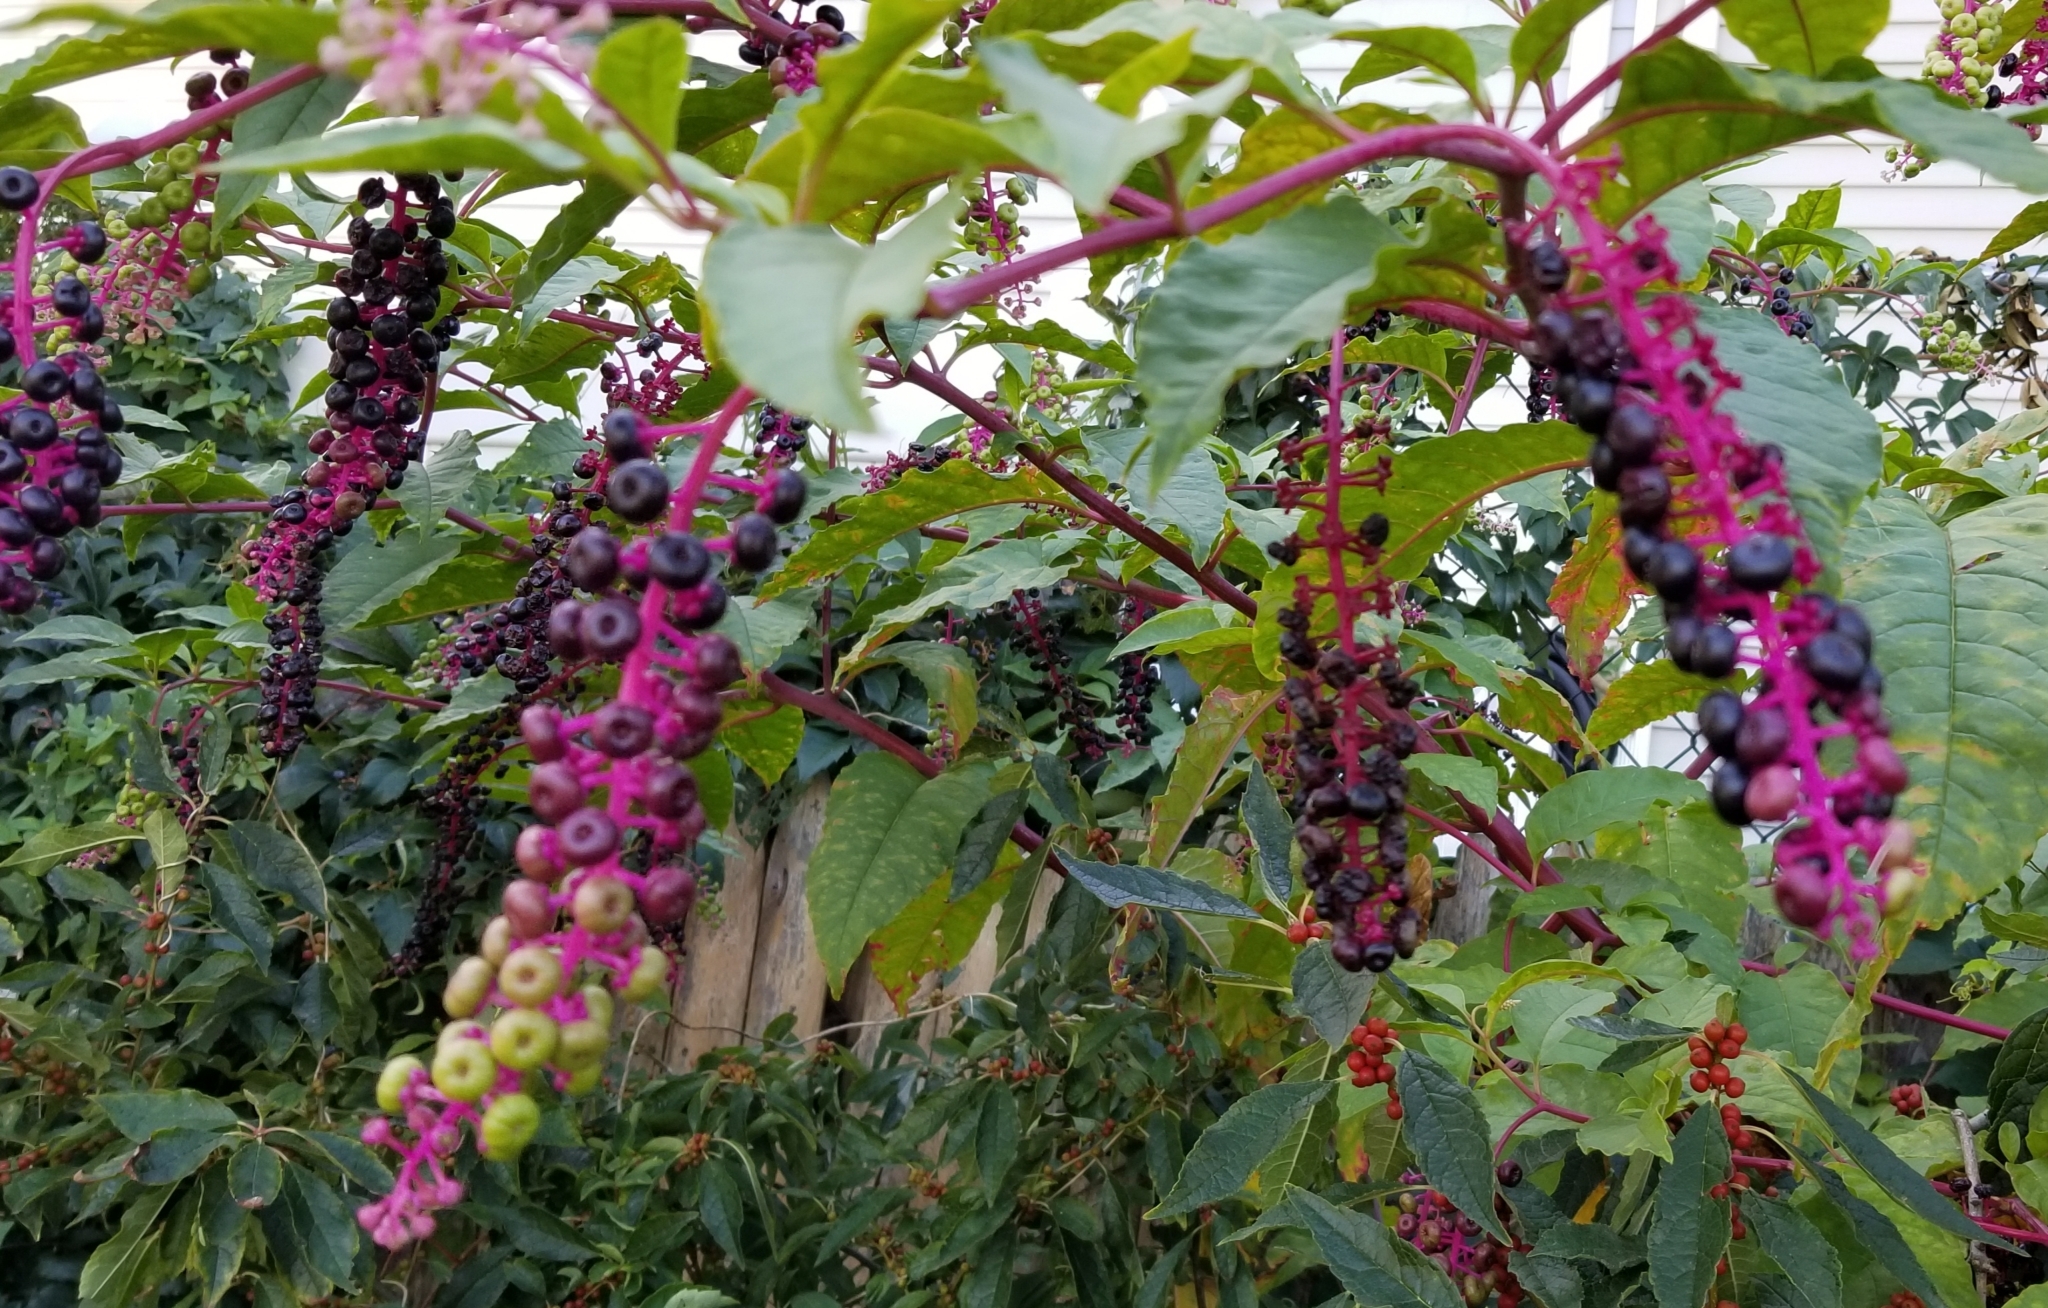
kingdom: Plantae
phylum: Tracheophyta
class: Magnoliopsida
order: Caryophyllales
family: Phytolaccaceae
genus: Phytolacca
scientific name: Phytolacca americana
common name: American pokeweed
